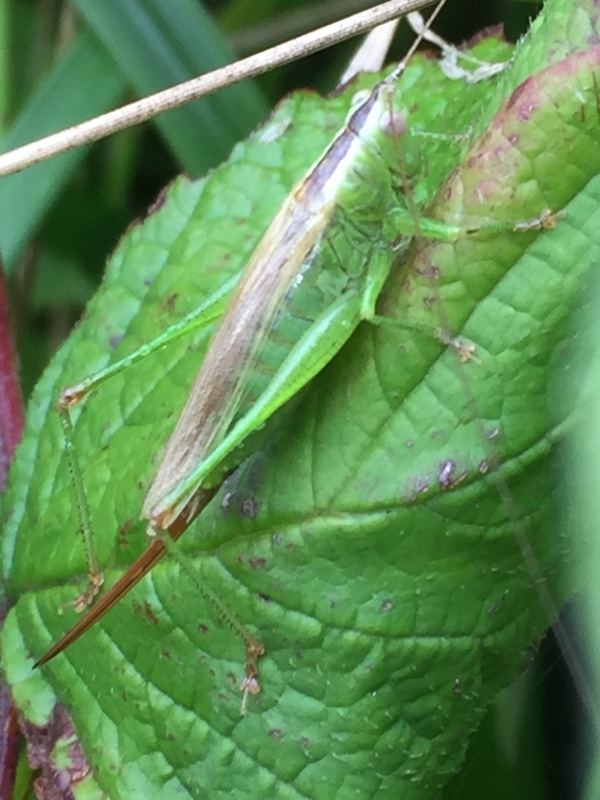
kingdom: Animalia
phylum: Arthropoda
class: Insecta
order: Orthoptera
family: Tettigoniidae
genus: Conocephalus
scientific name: Conocephalus fuscus
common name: Long-winged conehead
